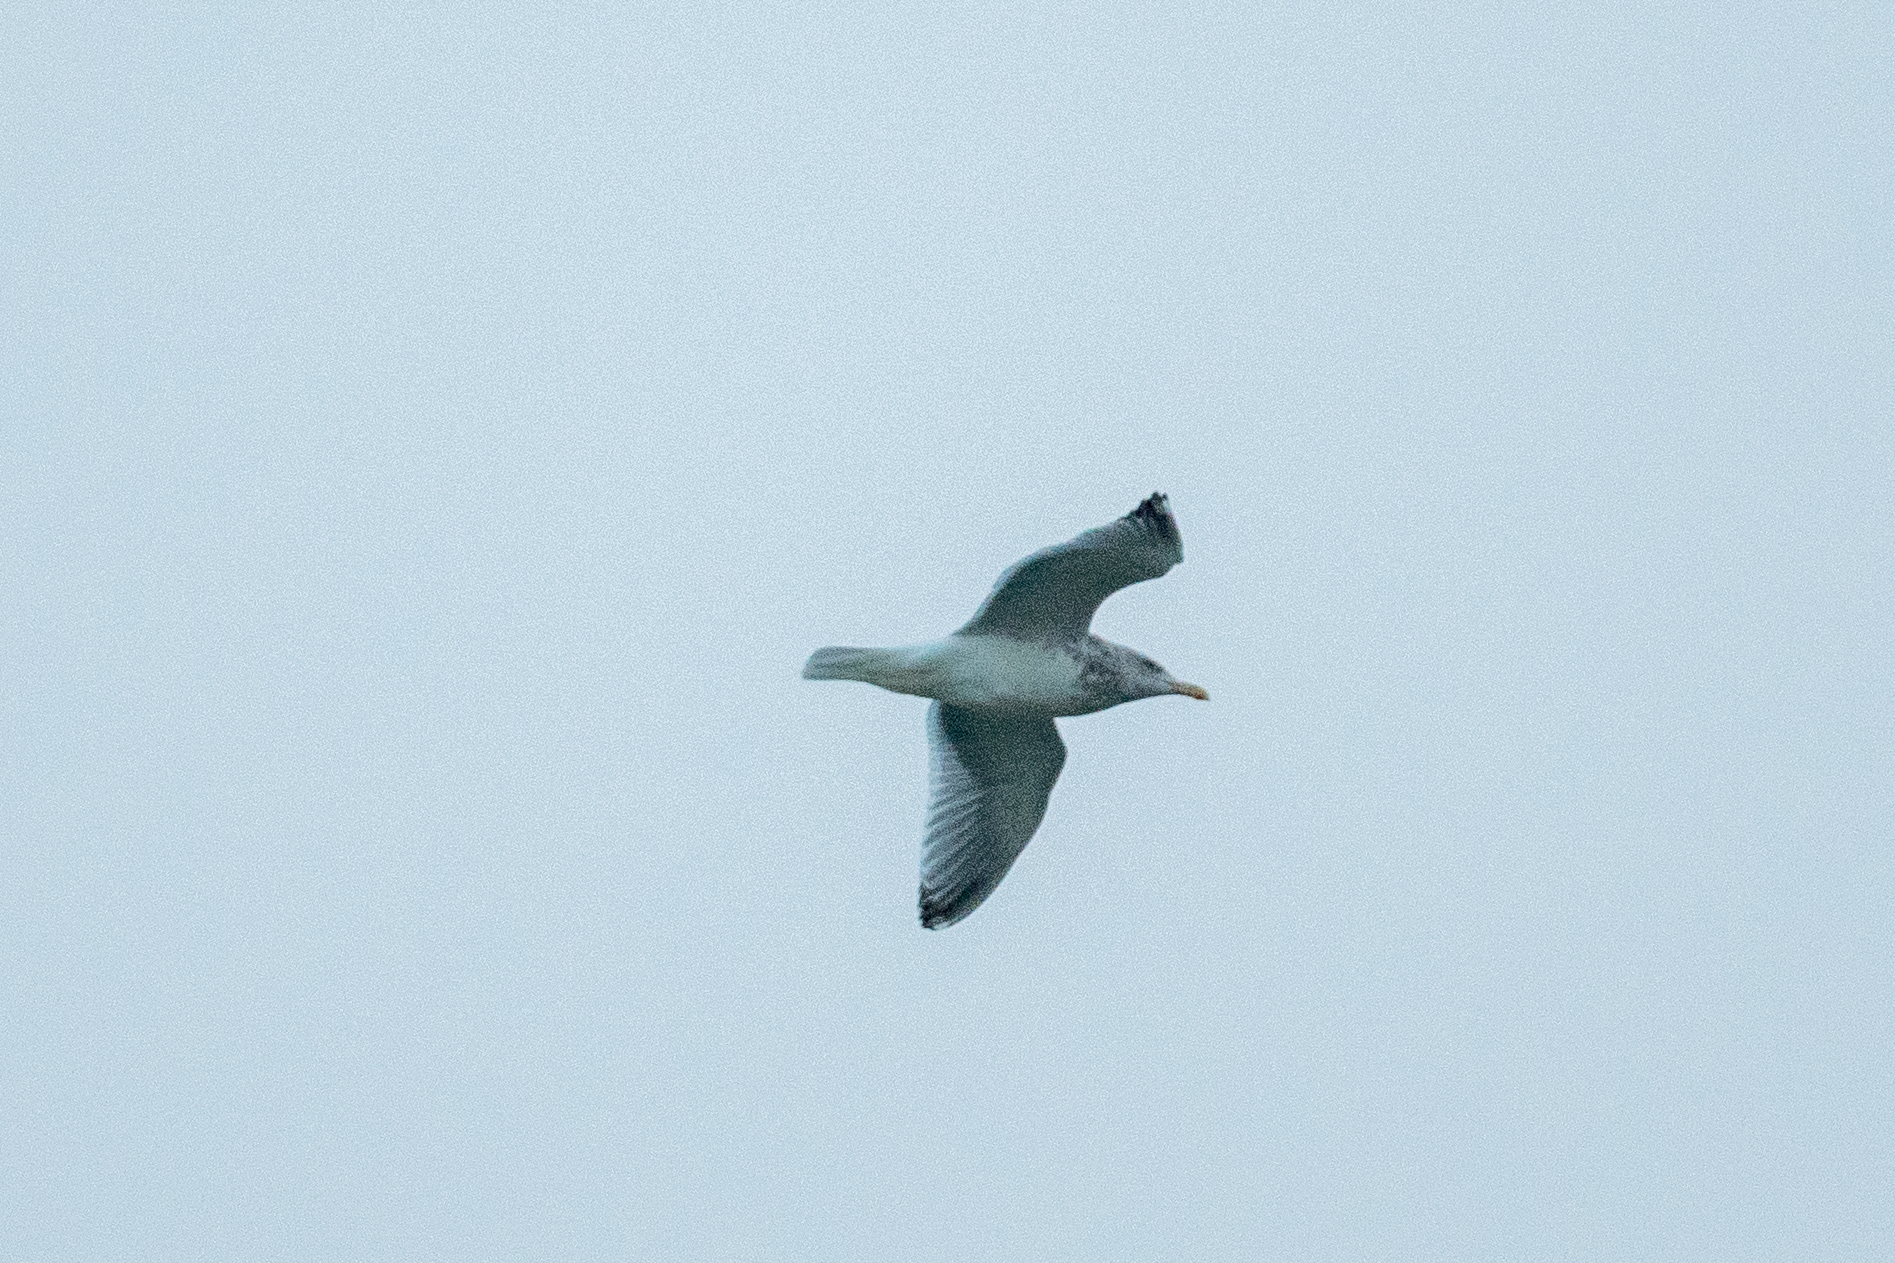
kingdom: Animalia
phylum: Chordata
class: Aves
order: Charadriiformes
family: Laridae
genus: Larus
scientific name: Larus argentatus
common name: Herring gull
